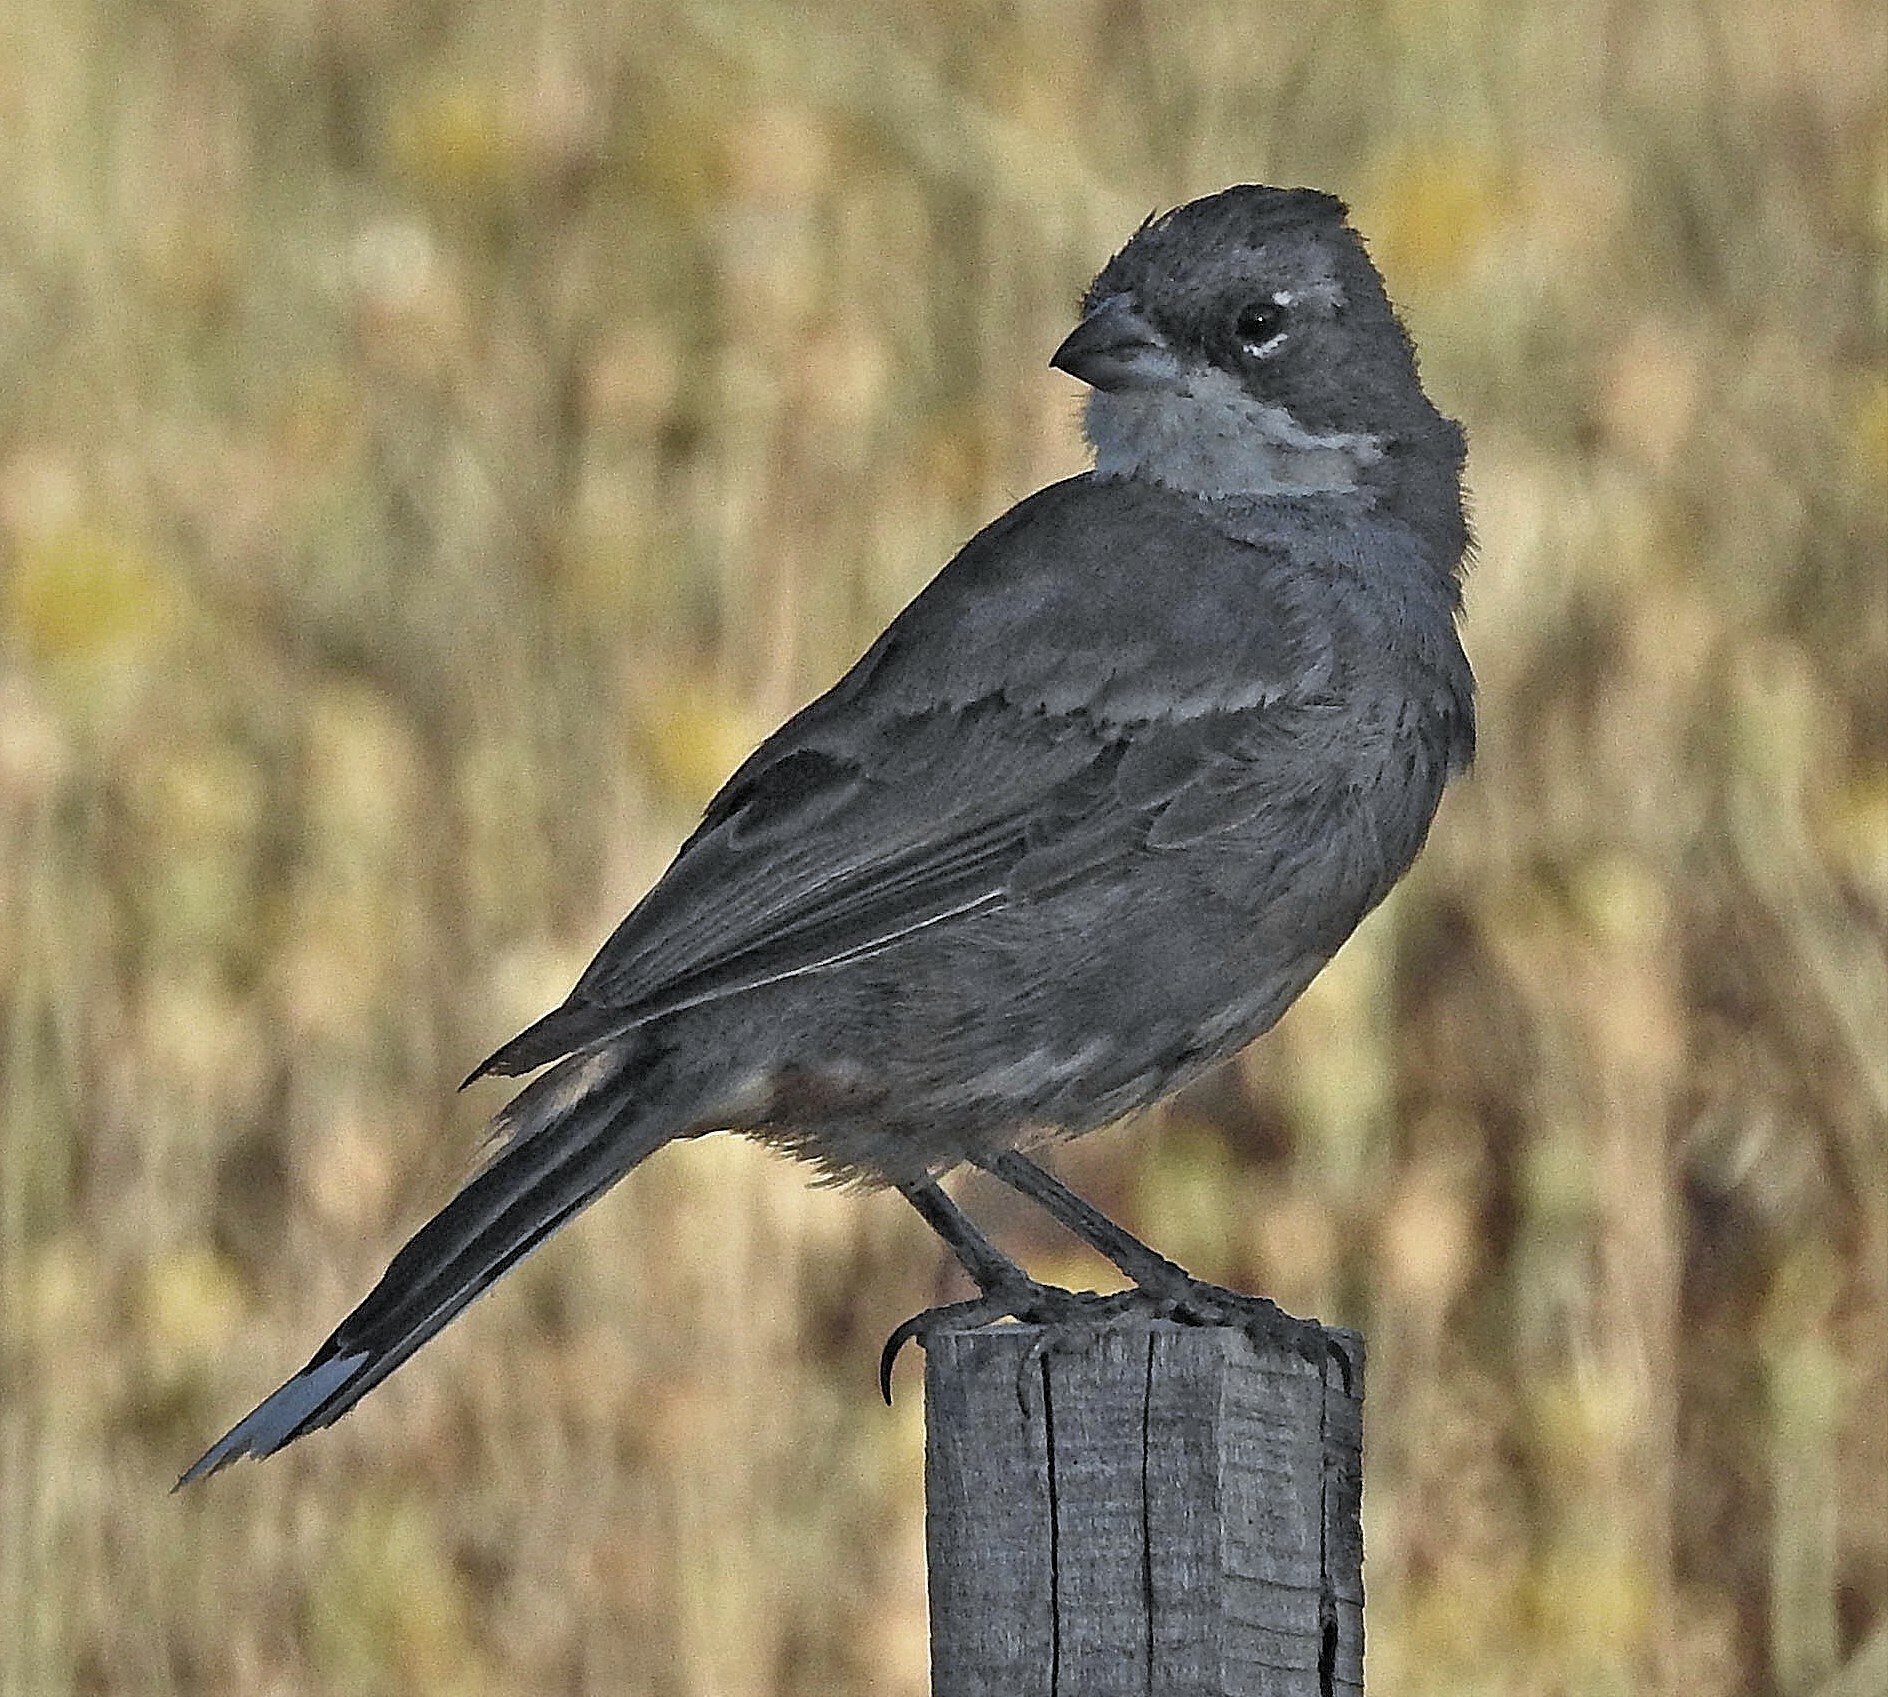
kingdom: Animalia
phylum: Chordata
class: Aves
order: Passeriformes
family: Thraupidae
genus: Diuca
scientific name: Diuca diuca
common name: Common diuca finch
